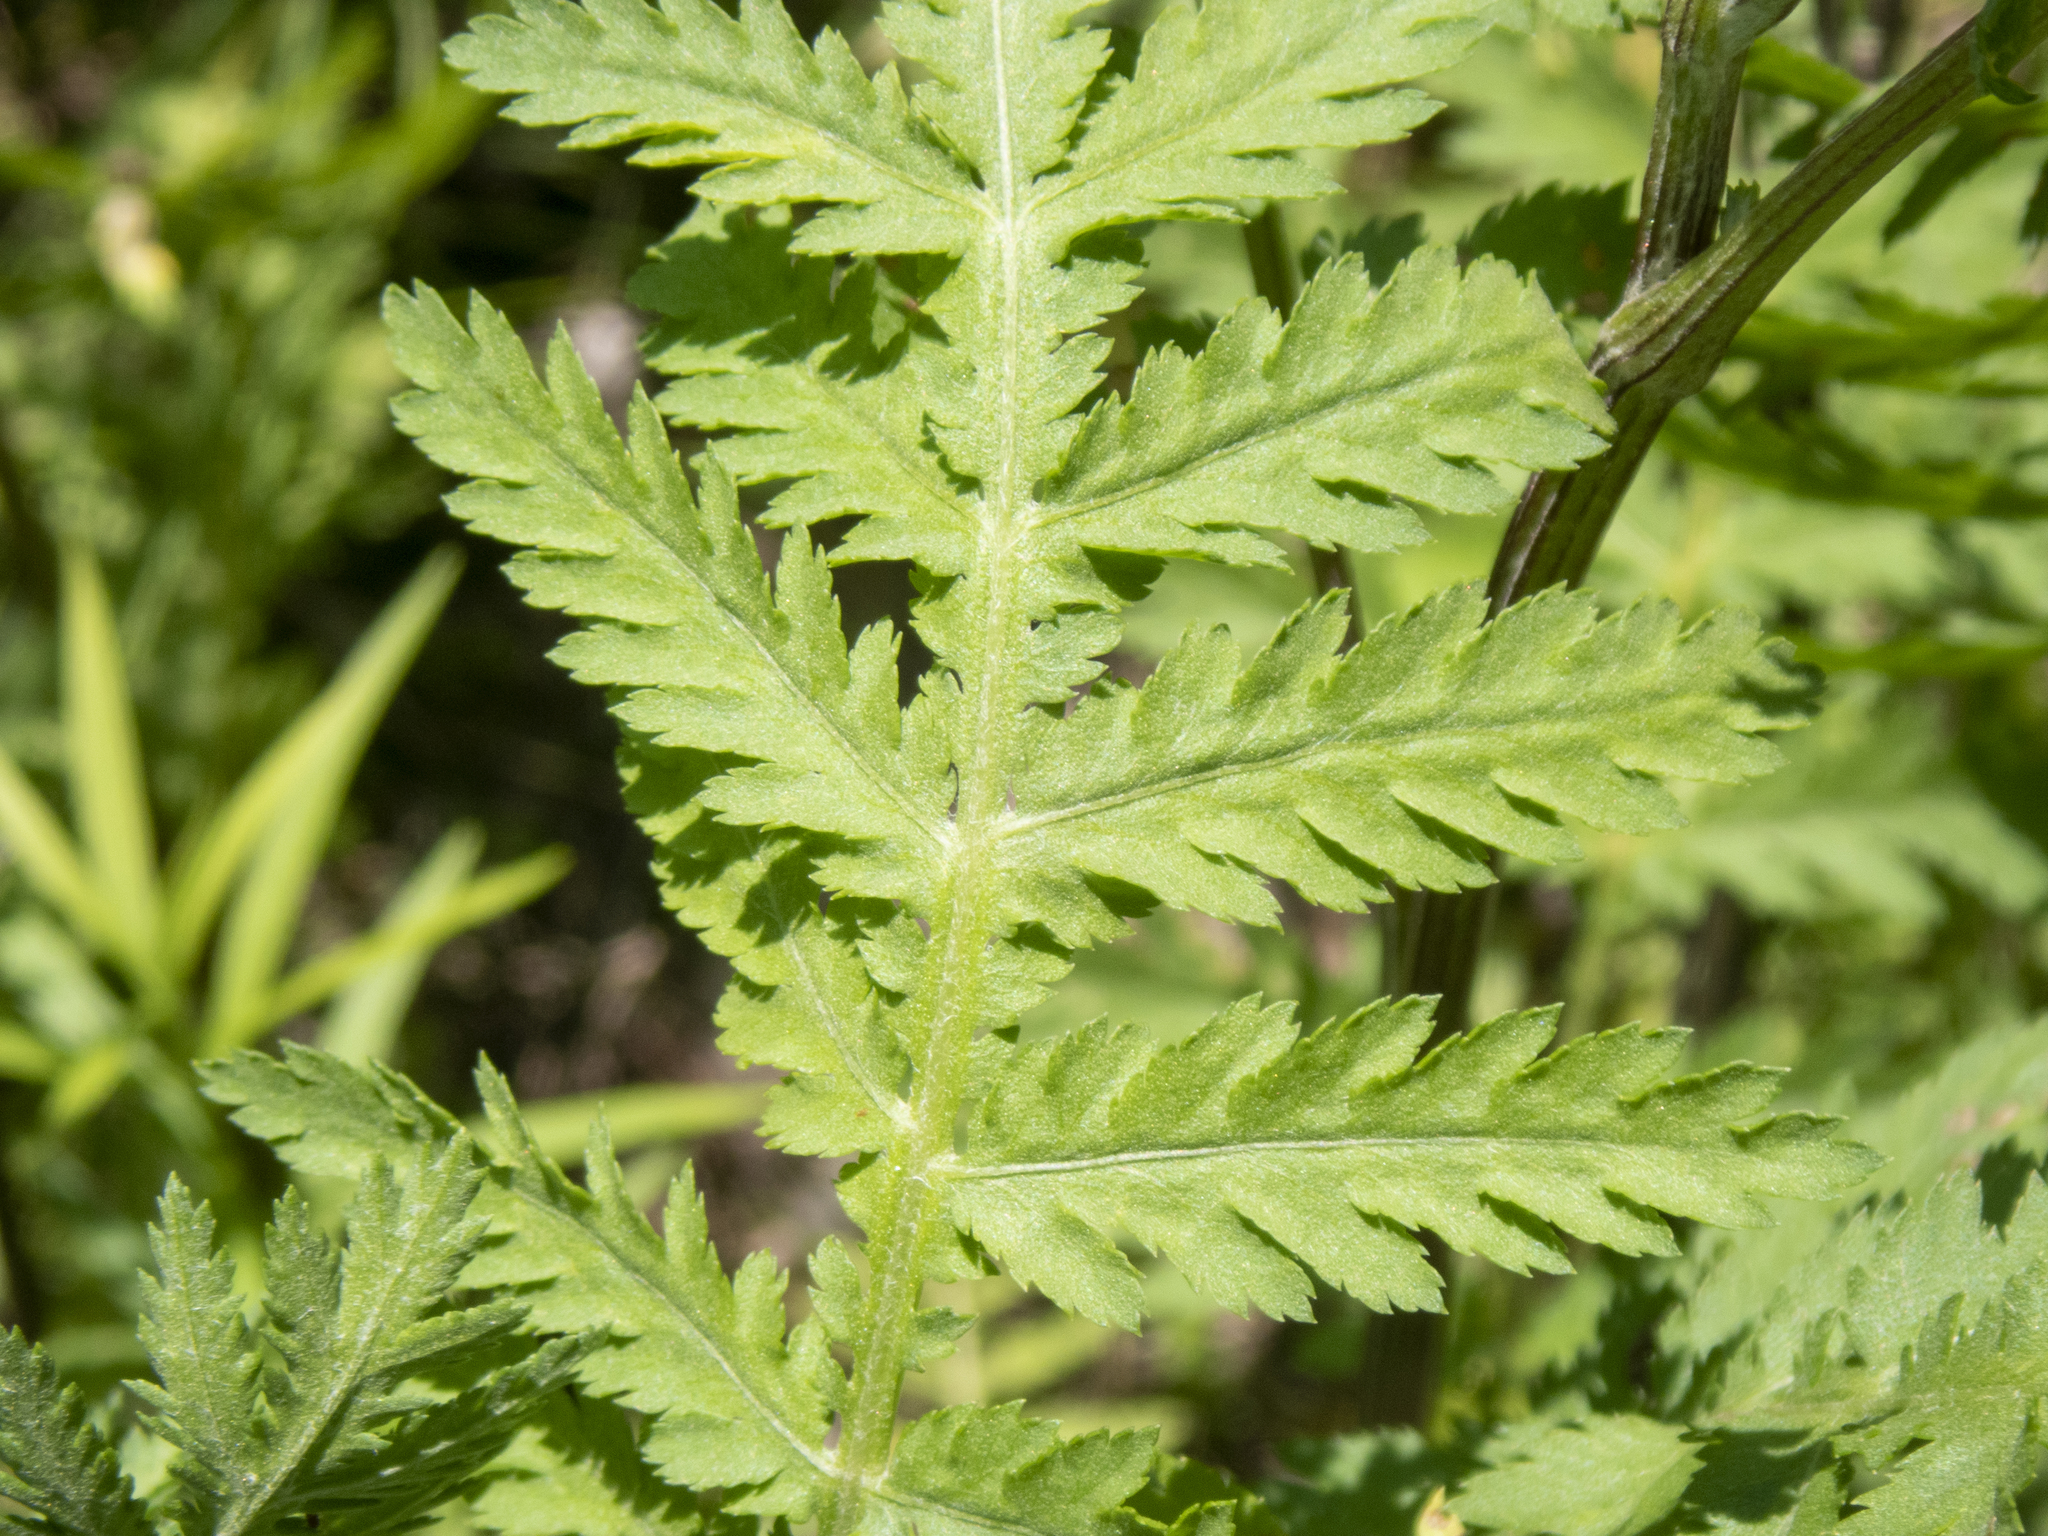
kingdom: Plantae
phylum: Tracheophyta
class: Magnoliopsida
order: Asterales
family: Asteraceae
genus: Tanacetum
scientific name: Tanacetum vulgare
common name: Common tansy
